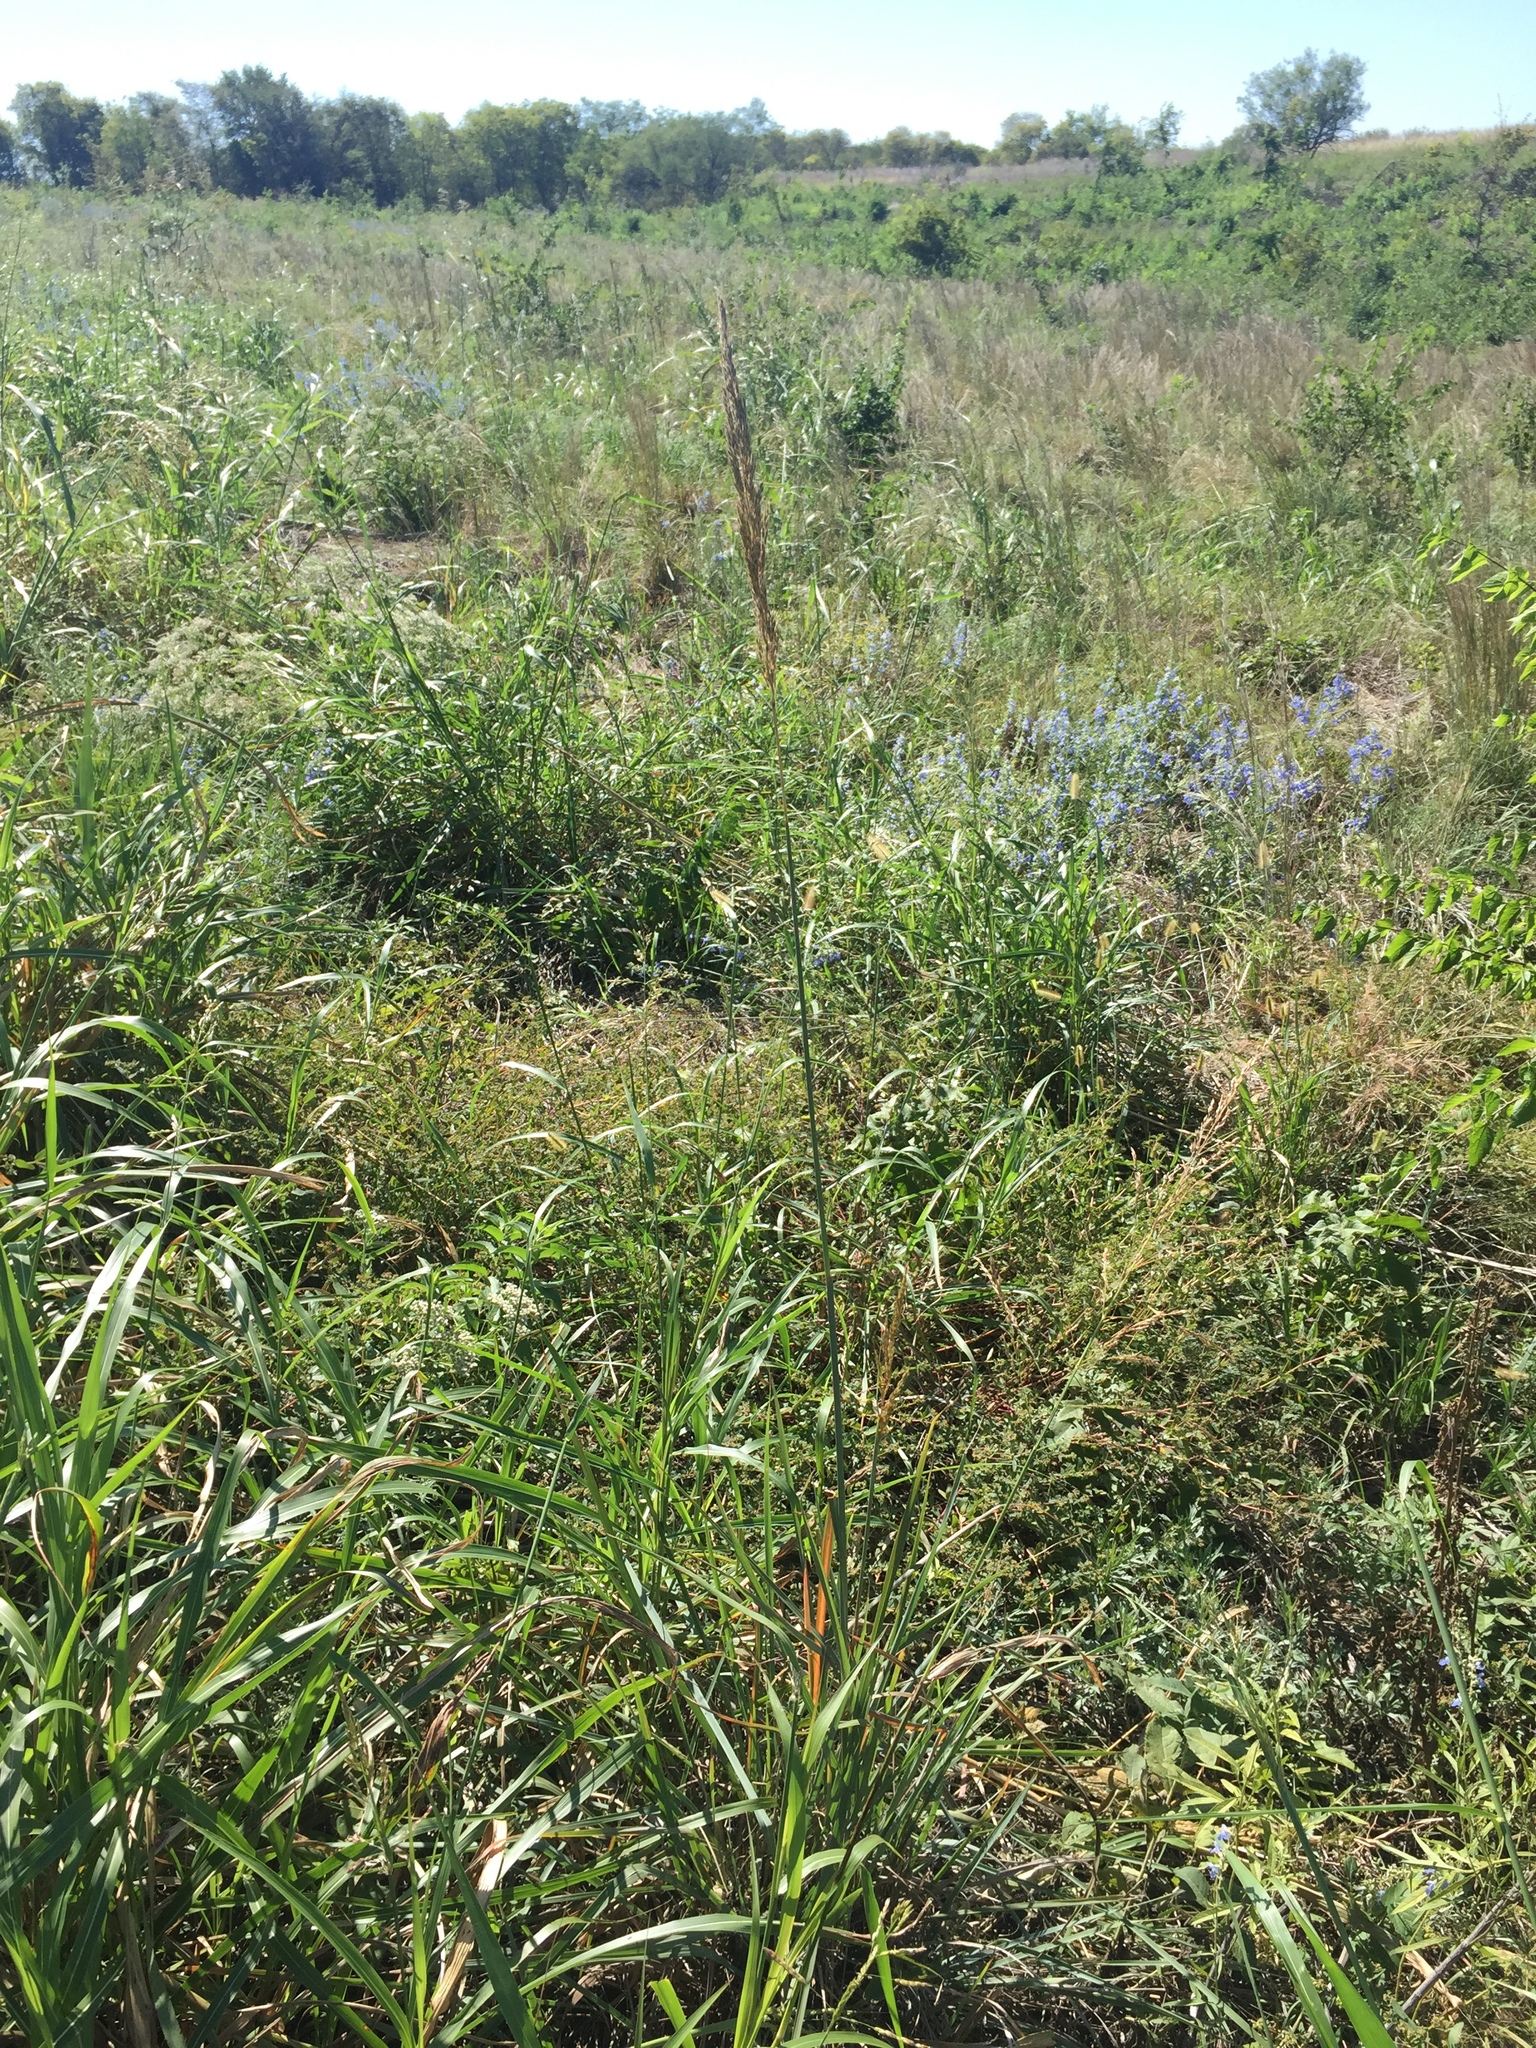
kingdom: Plantae
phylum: Tracheophyta
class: Liliopsida
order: Poales
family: Poaceae
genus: Sorghastrum
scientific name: Sorghastrum nutans
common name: Indian grass
